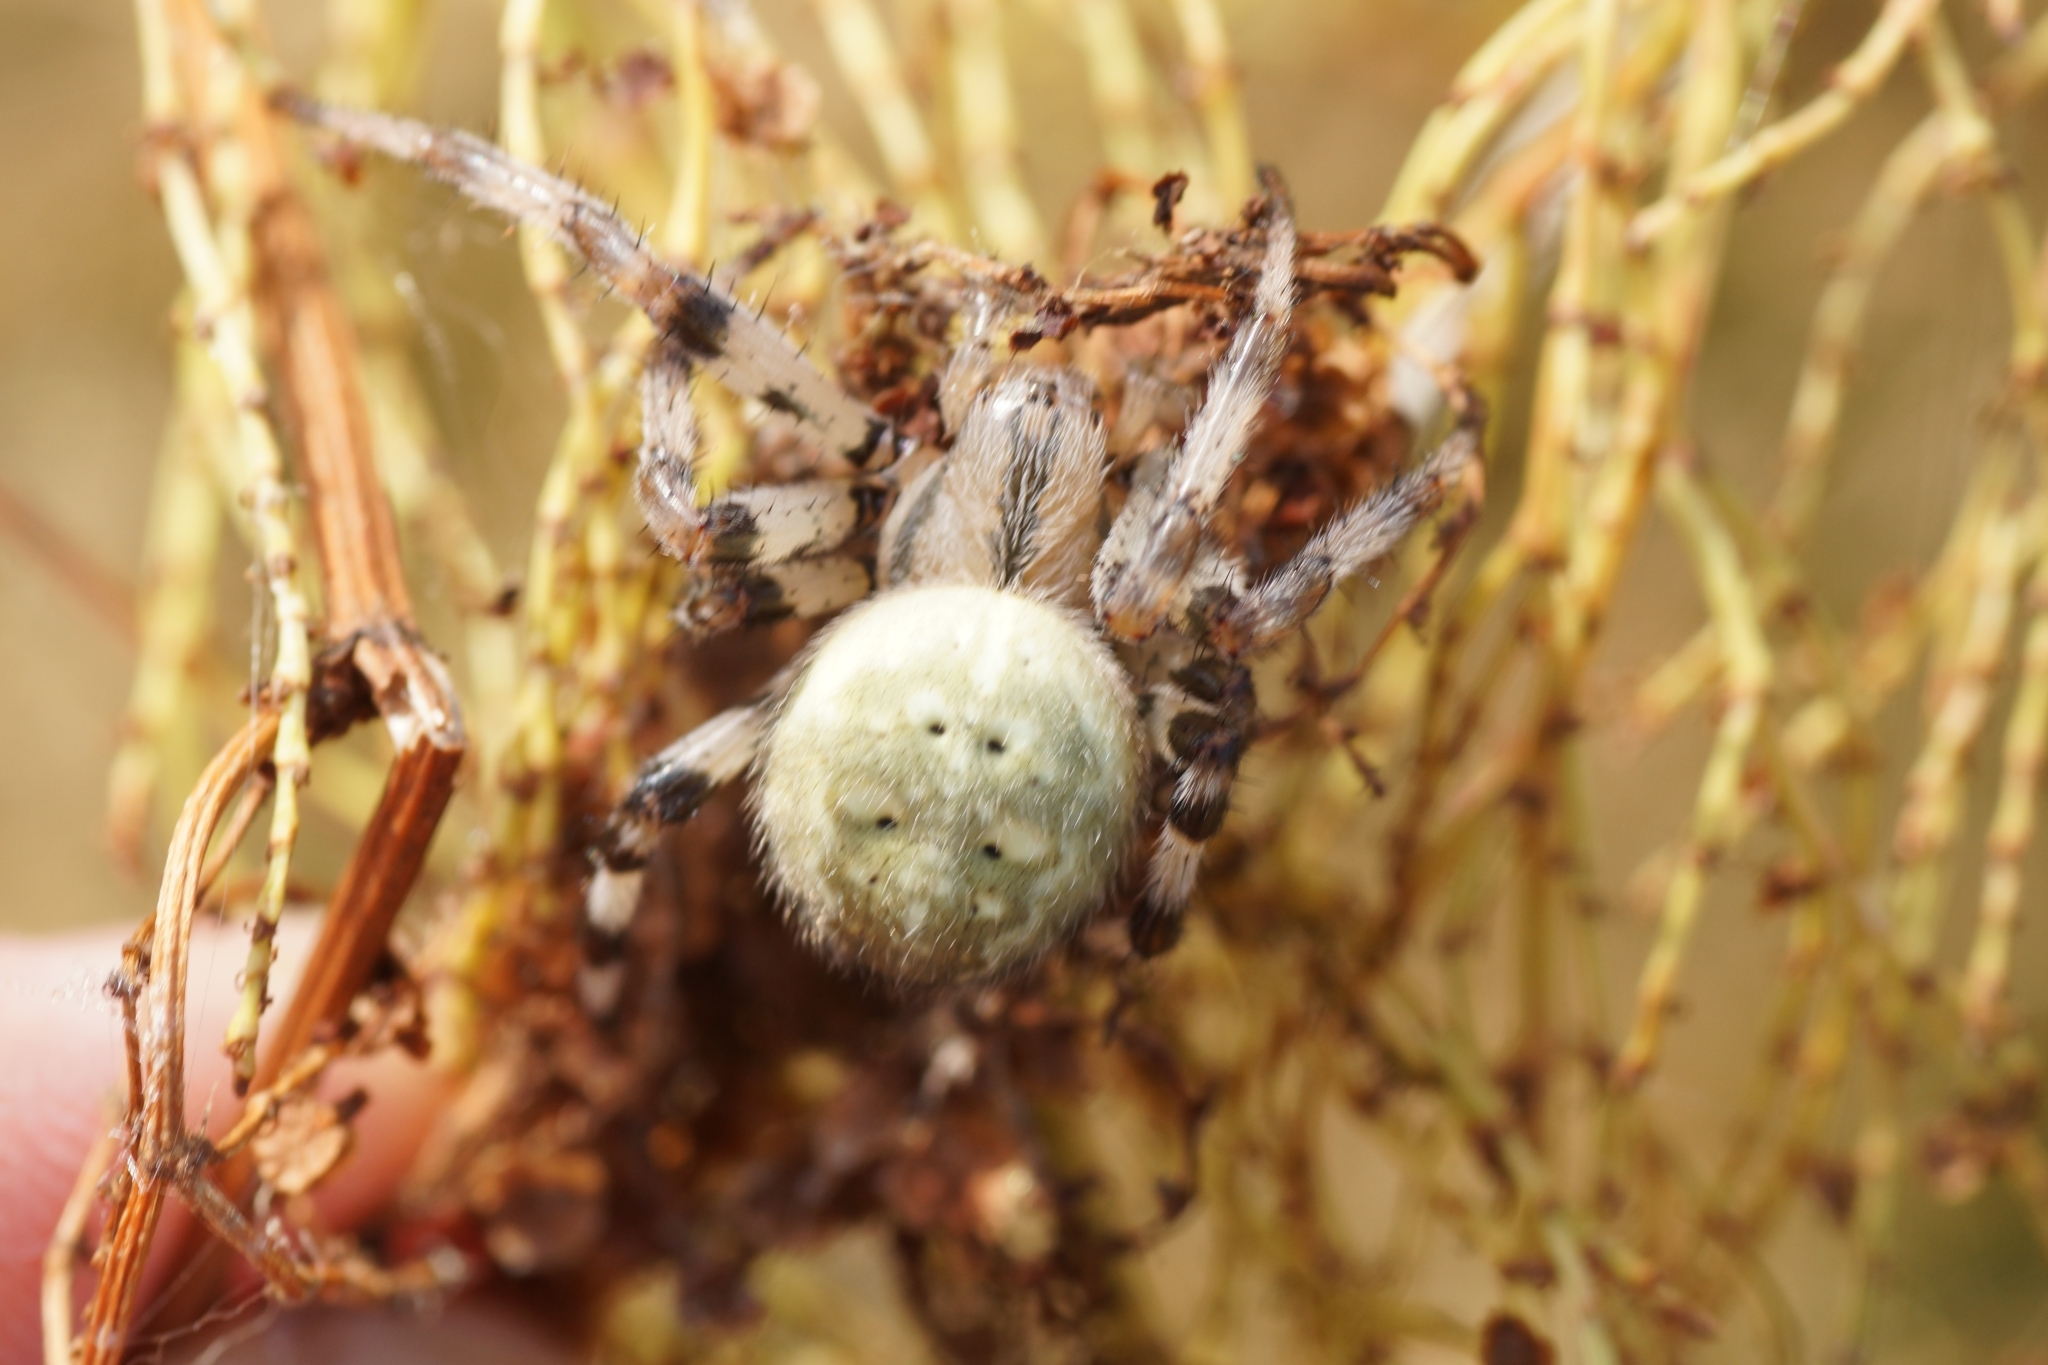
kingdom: Animalia
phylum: Arthropoda
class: Arachnida
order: Araneae
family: Araneidae
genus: Araneus
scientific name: Araneus quadratus
